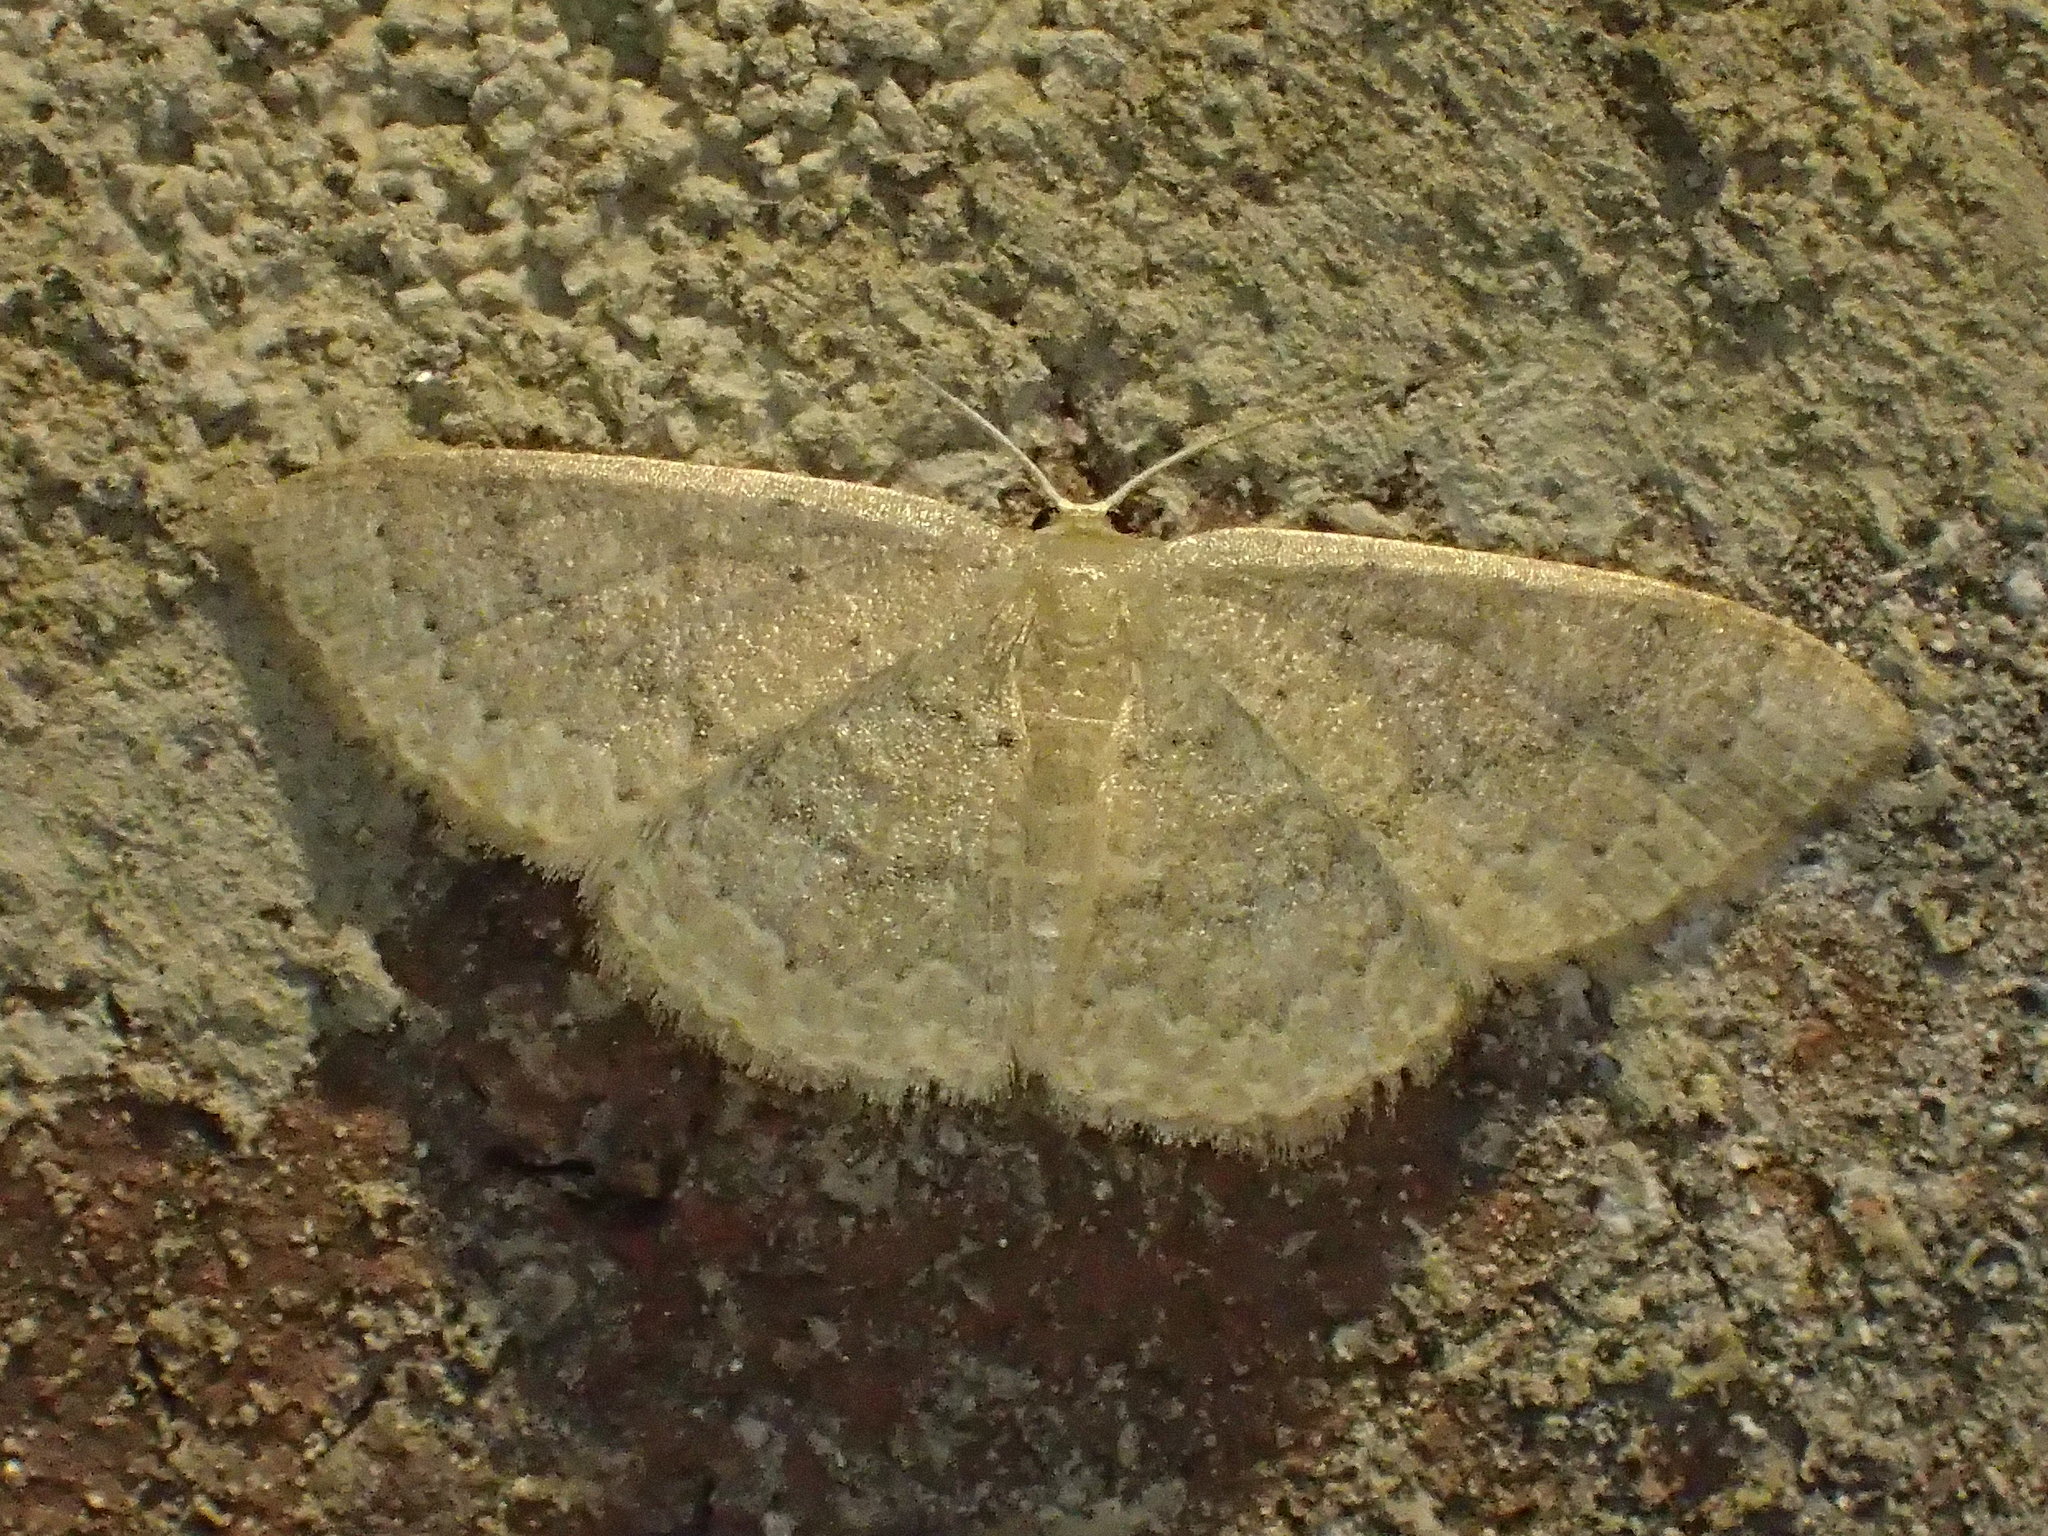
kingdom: Animalia
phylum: Arthropoda
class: Insecta
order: Lepidoptera
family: Geometridae
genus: Pleuroprucha
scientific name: Pleuroprucha insulsaria
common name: Common tan wave
